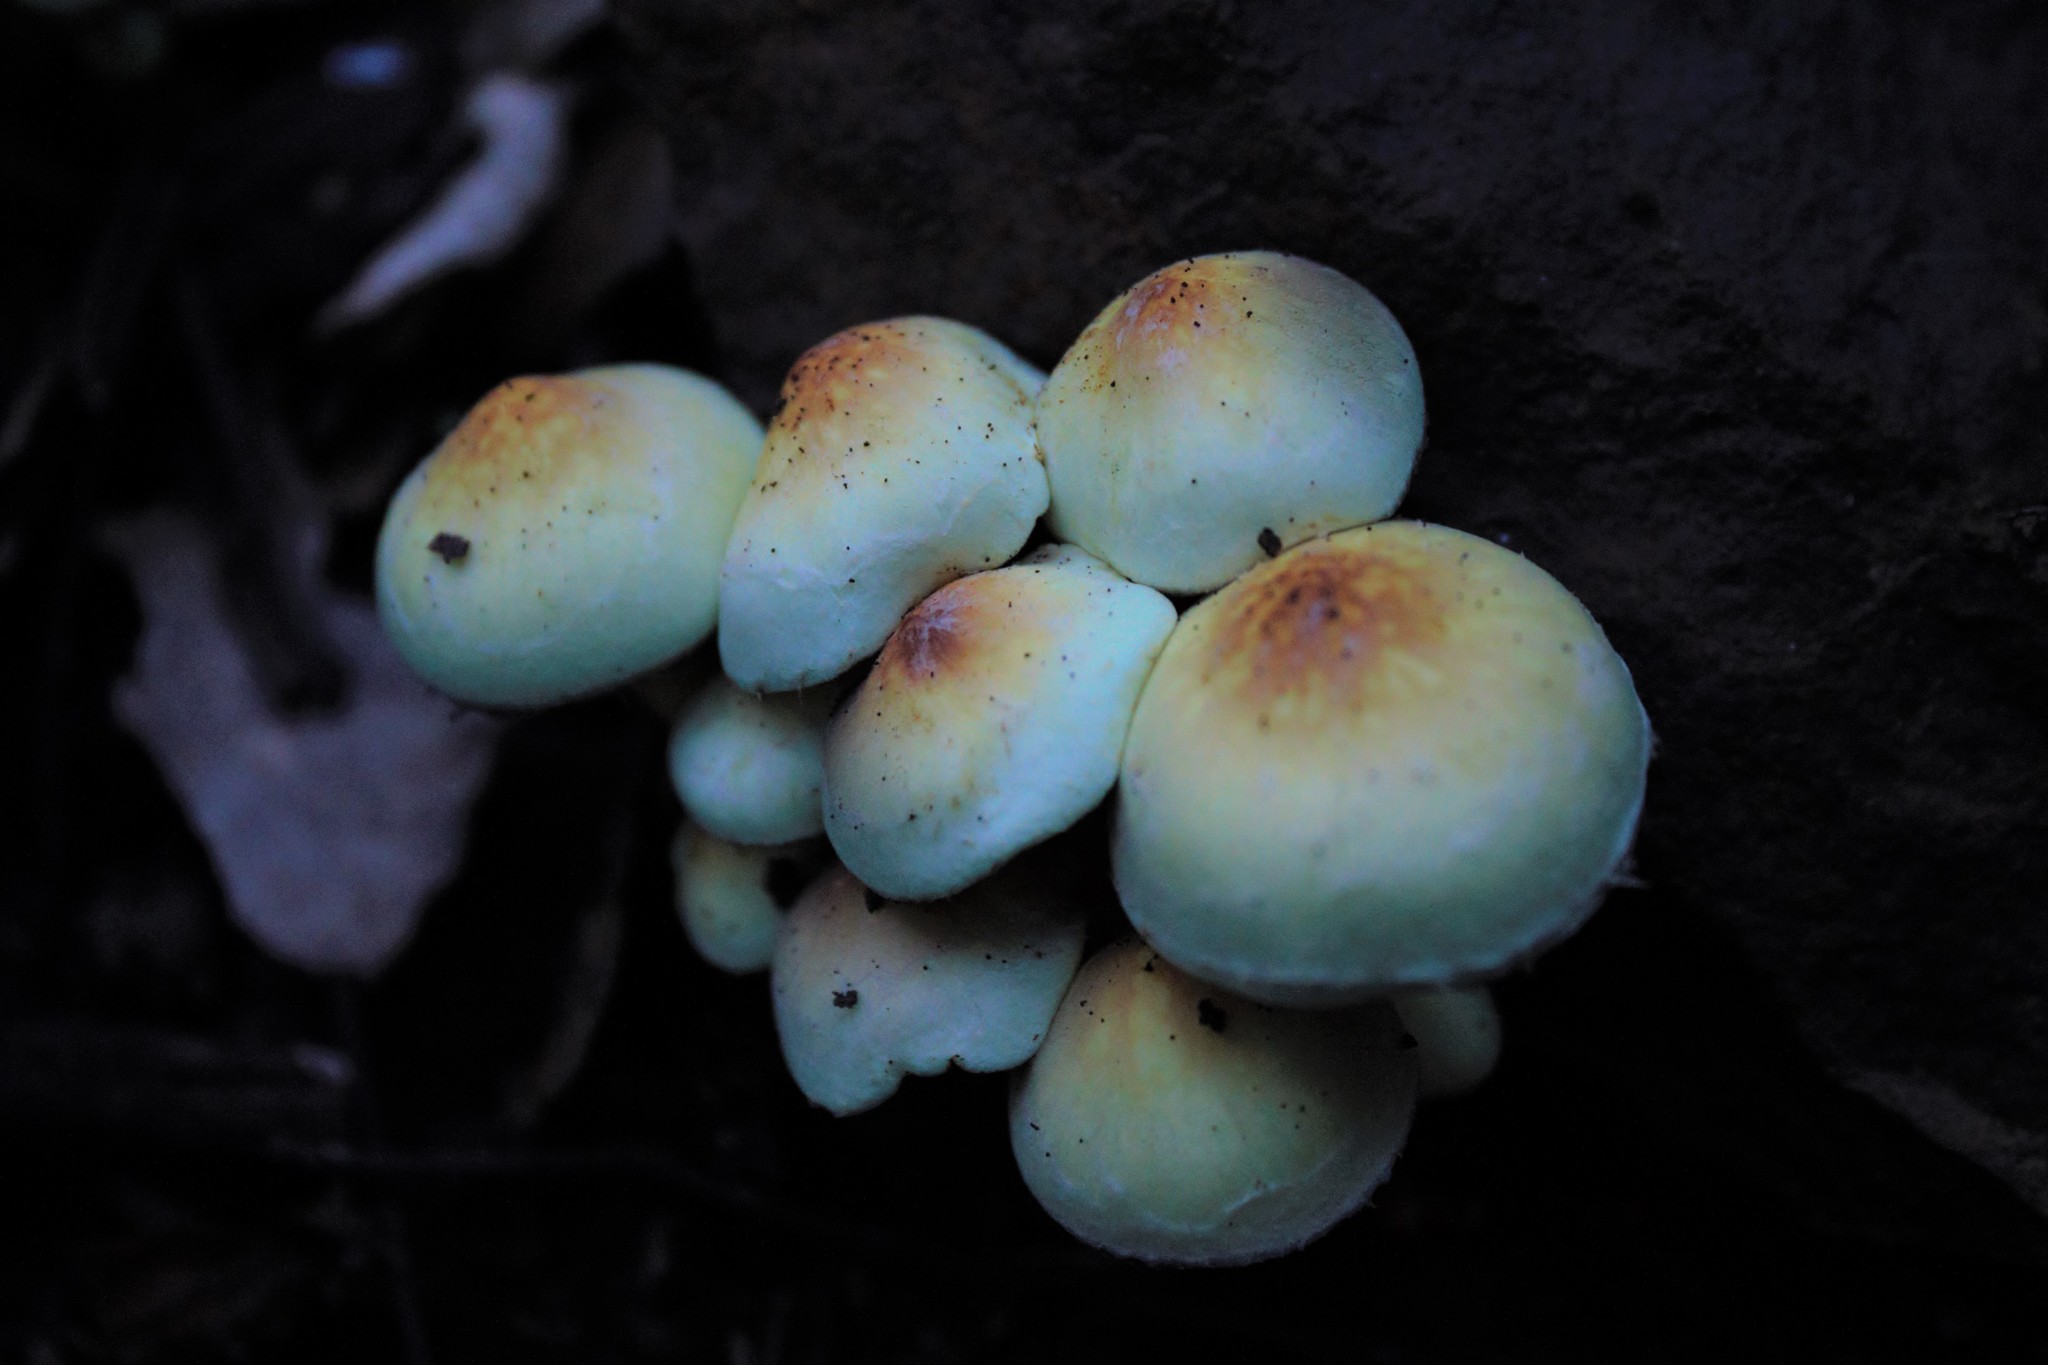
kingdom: Fungi
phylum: Basidiomycota
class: Agaricomycetes
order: Agaricales
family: Strophariaceae
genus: Hypholoma
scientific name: Hypholoma fasciculare
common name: Sulphur tuft
